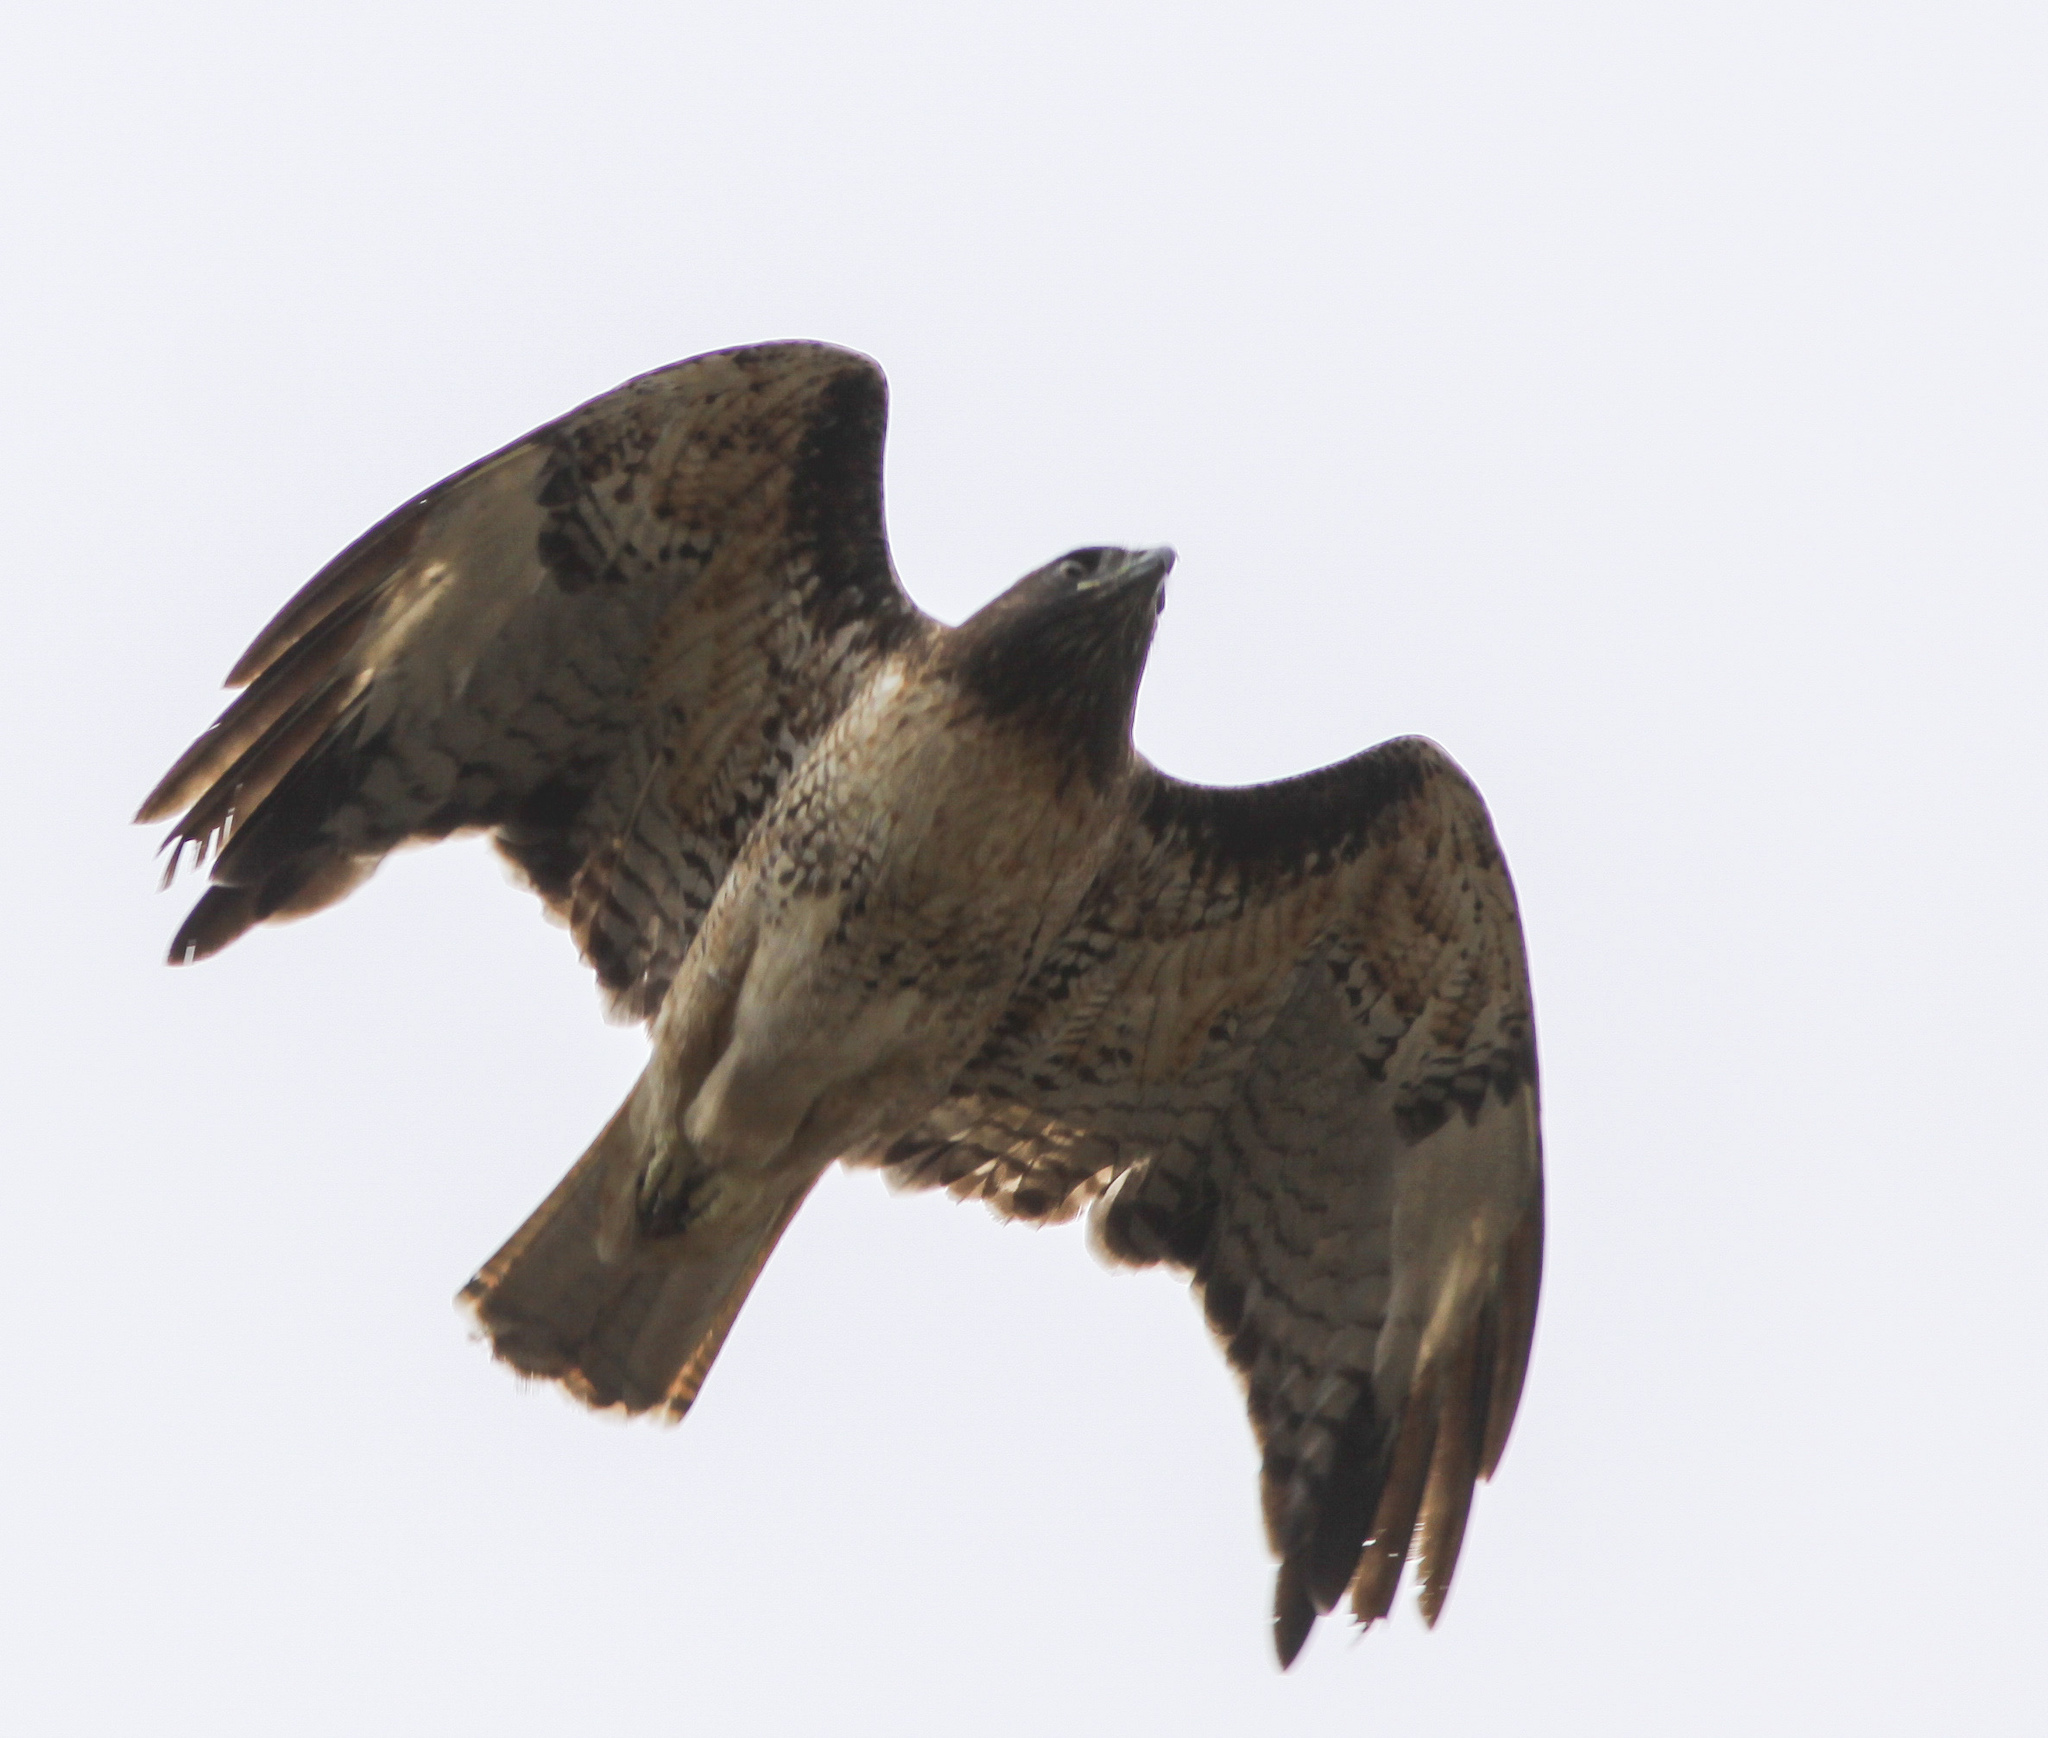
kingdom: Animalia
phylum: Chordata
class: Aves
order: Accipitriformes
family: Accipitridae
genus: Buteo
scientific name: Buteo jamaicensis
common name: Red-tailed hawk
